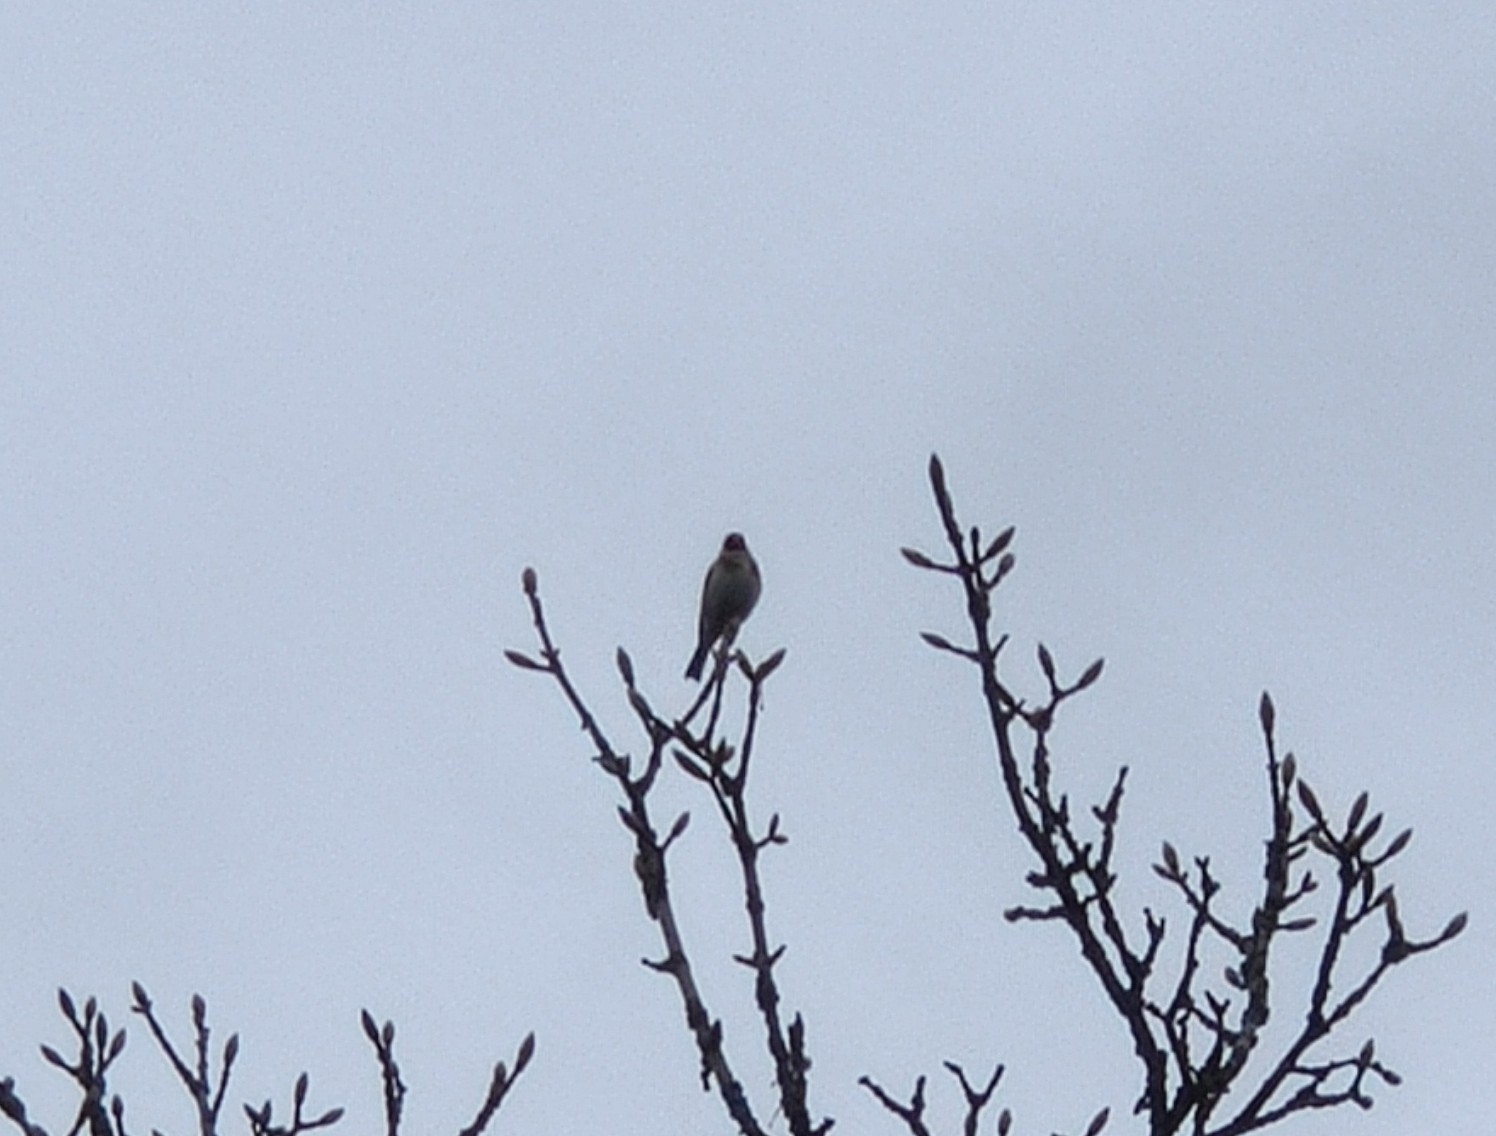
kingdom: Animalia
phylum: Chordata
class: Aves
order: Passeriformes
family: Fringillidae
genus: Carduelis
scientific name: Carduelis carduelis
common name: European goldfinch
